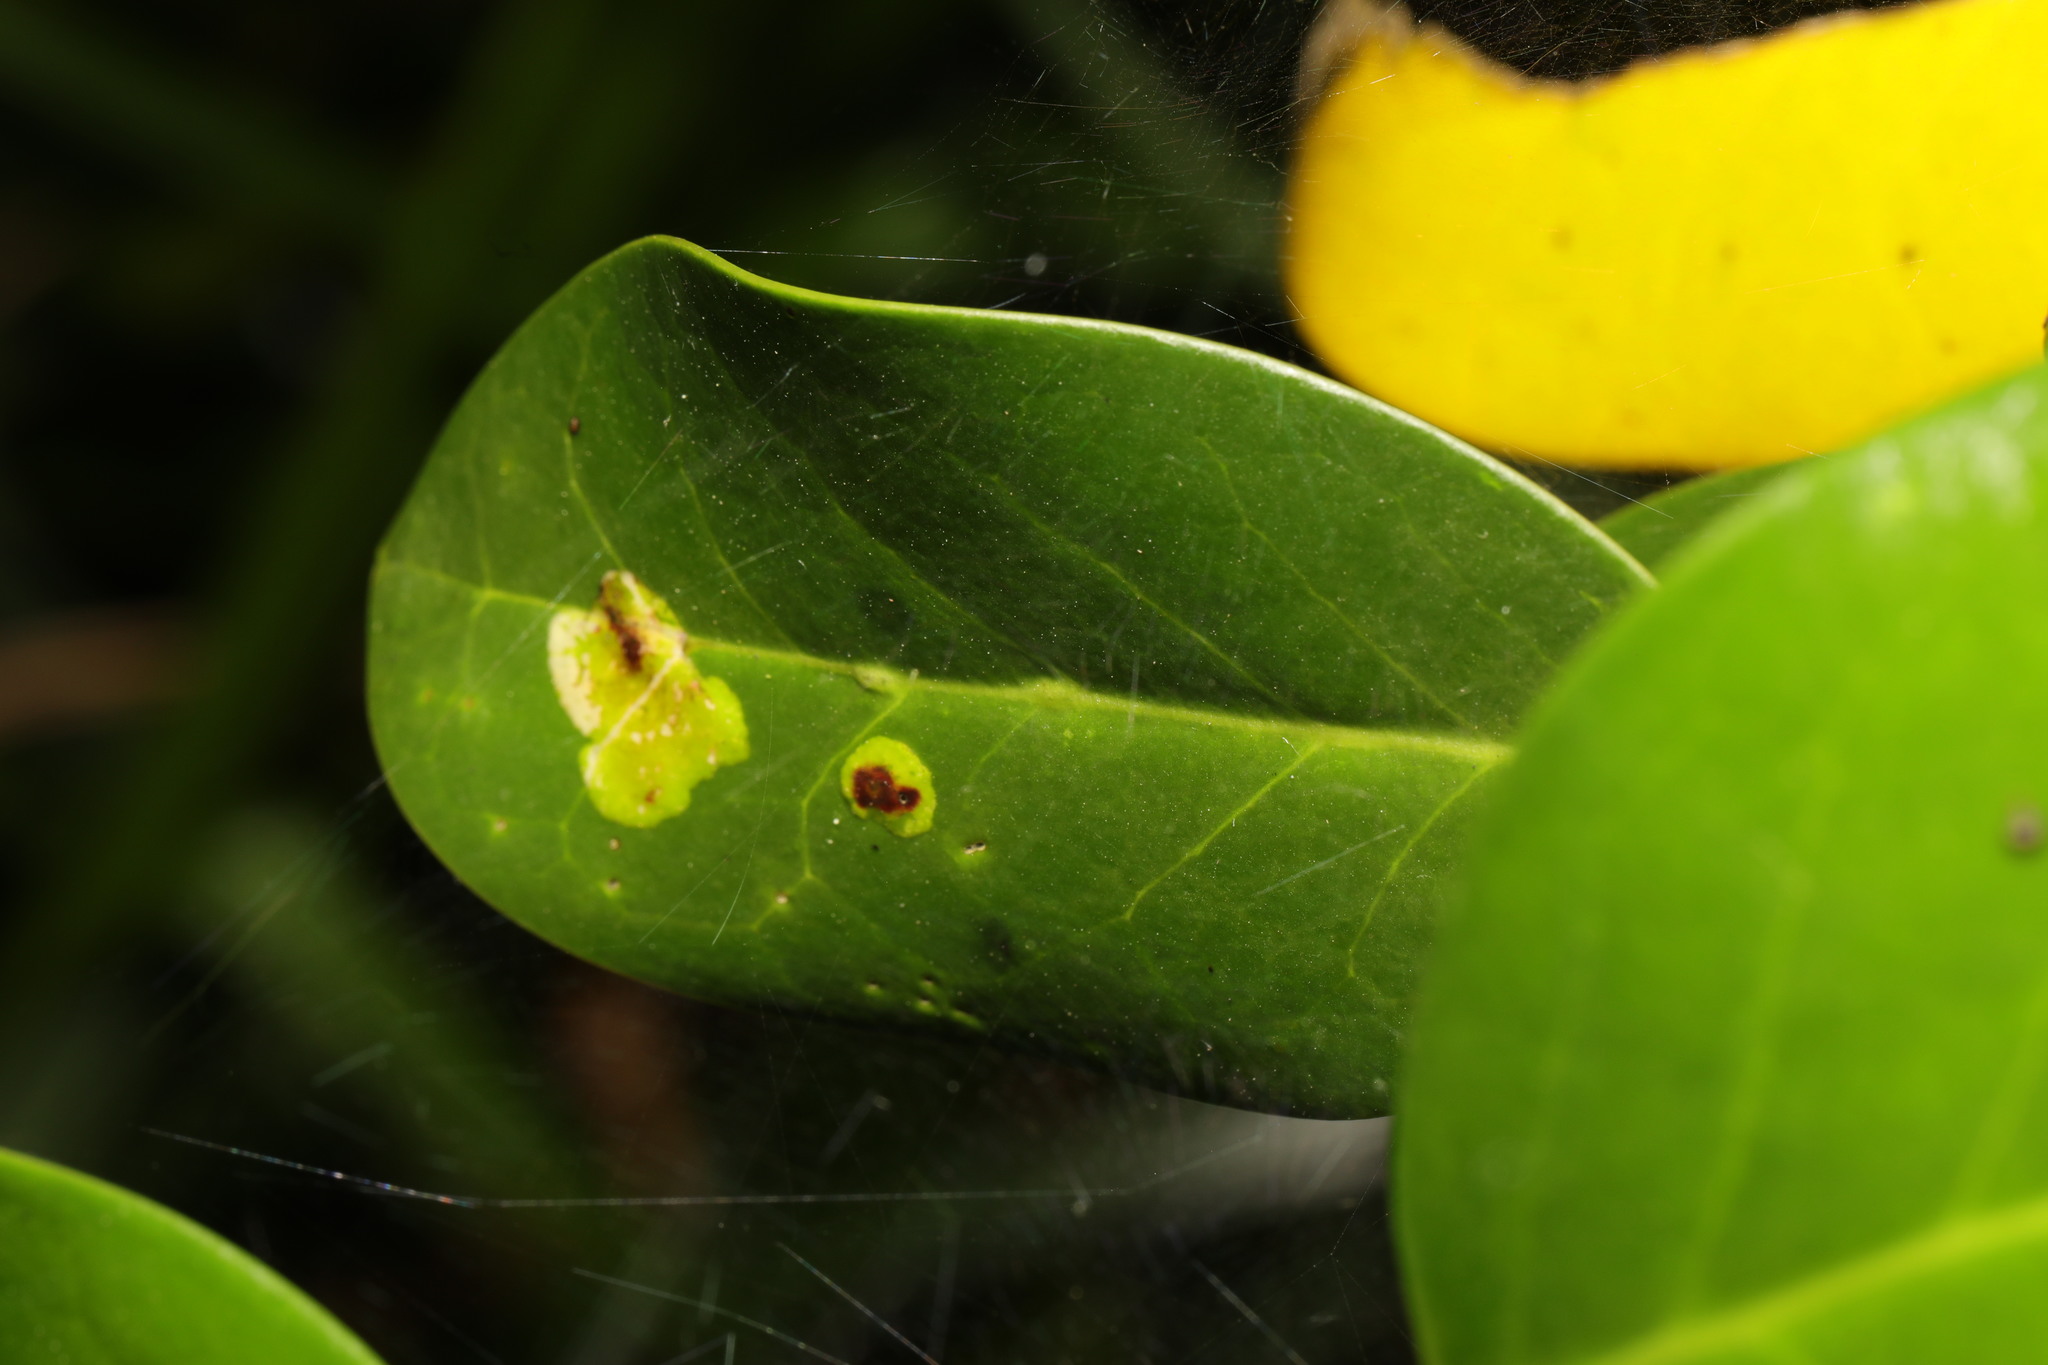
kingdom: Animalia
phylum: Arthropoda
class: Insecta
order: Diptera
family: Agromyzidae
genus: Phytomyza
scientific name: Phytomyza ilicis
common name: Holly leafminer
